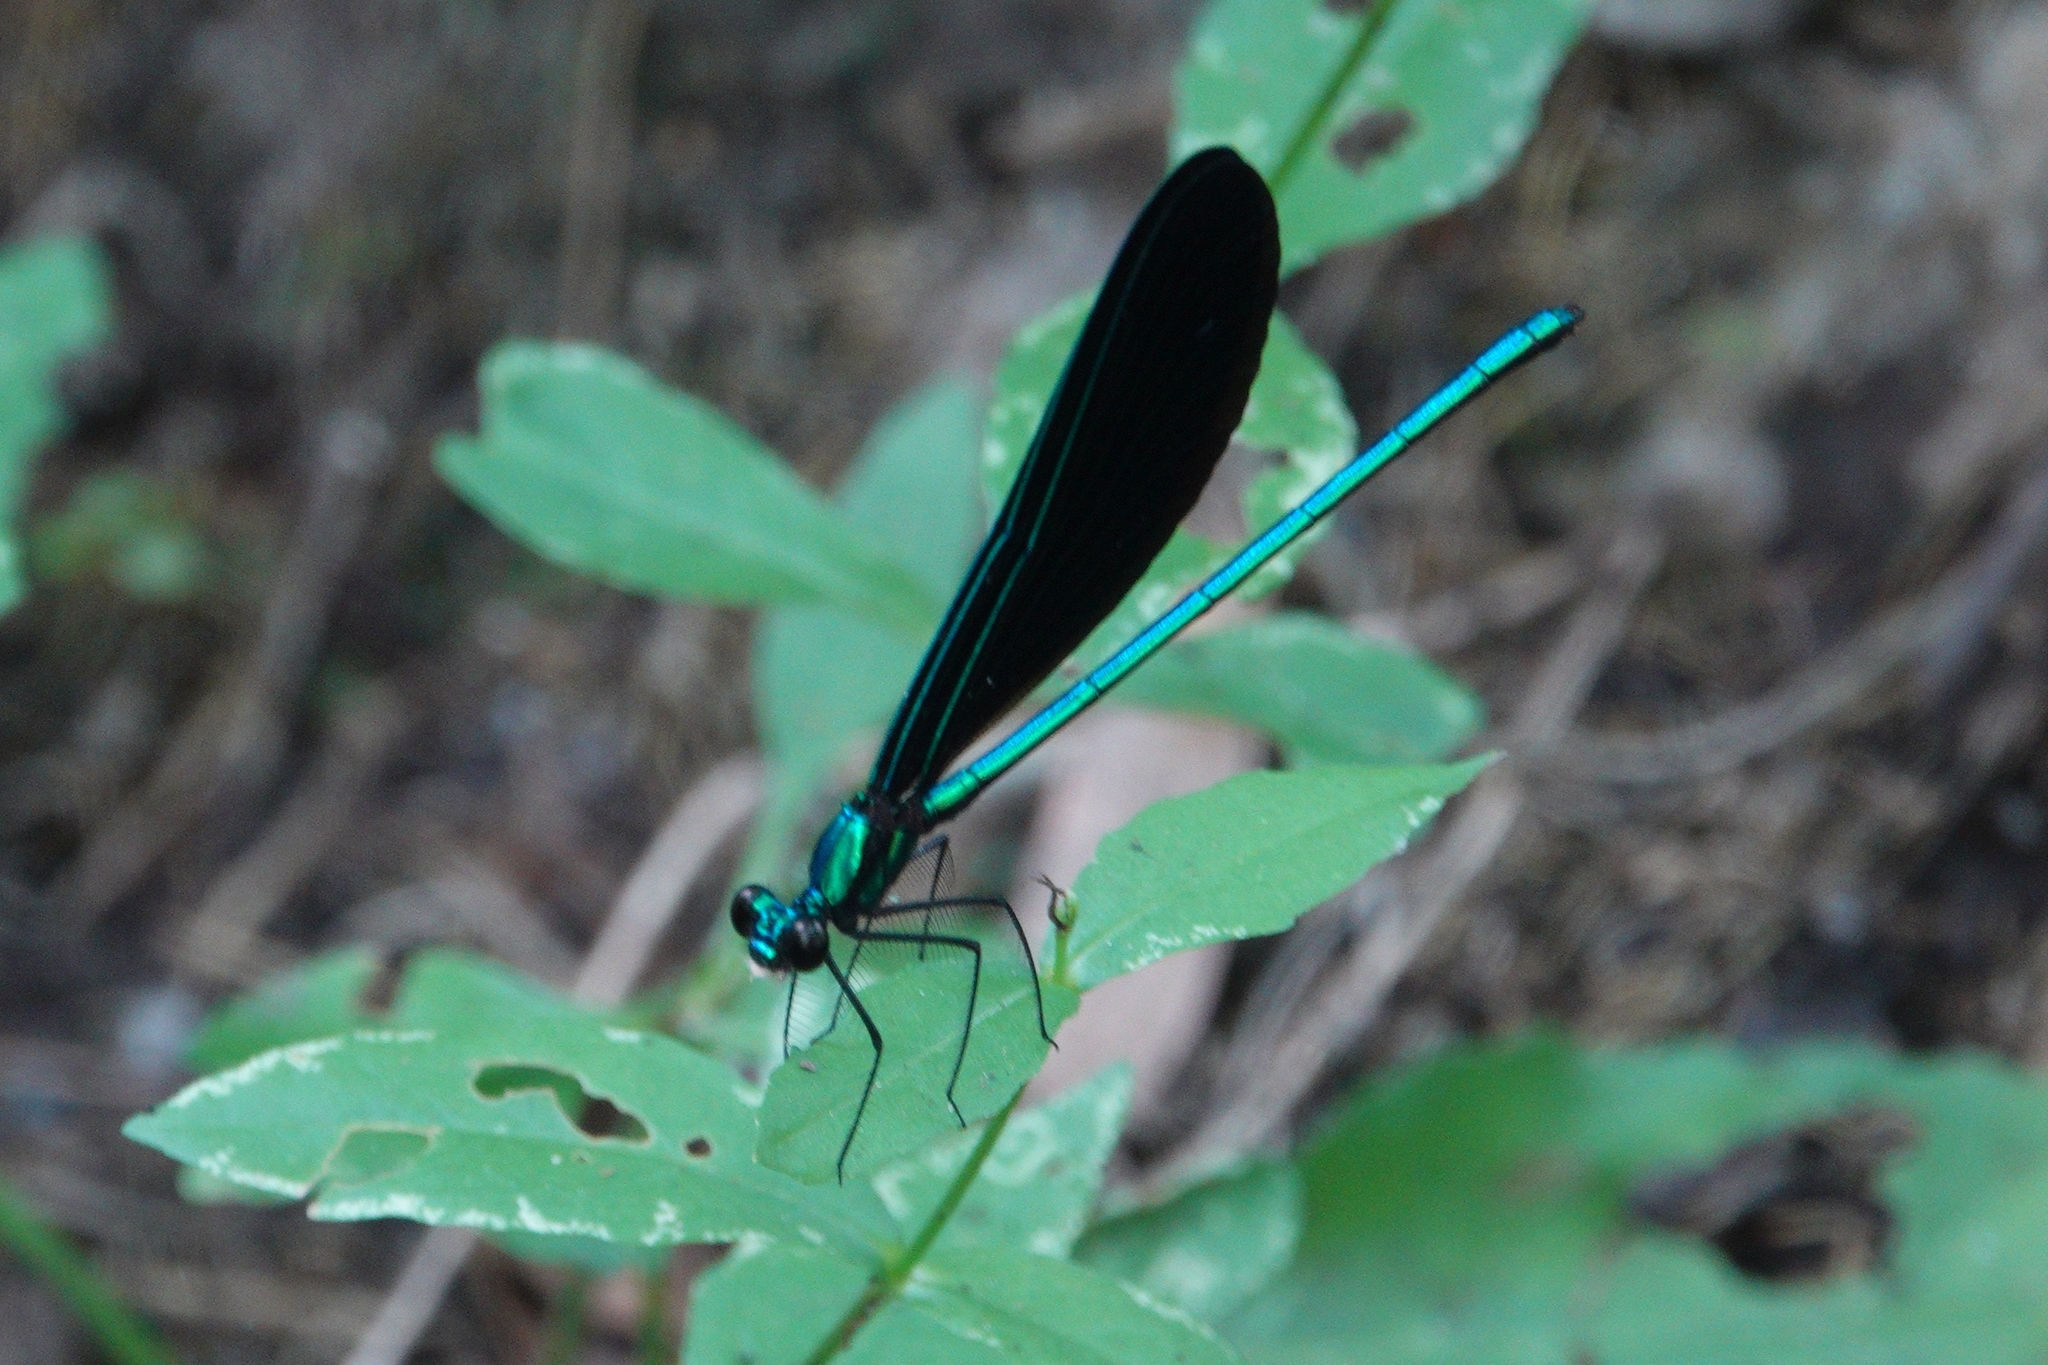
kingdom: Animalia
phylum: Arthropoda
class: Insecta
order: Odonata
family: Calopterygidae
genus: Calopteryx
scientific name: Calopteryx maculata
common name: Ebony jewelwing
